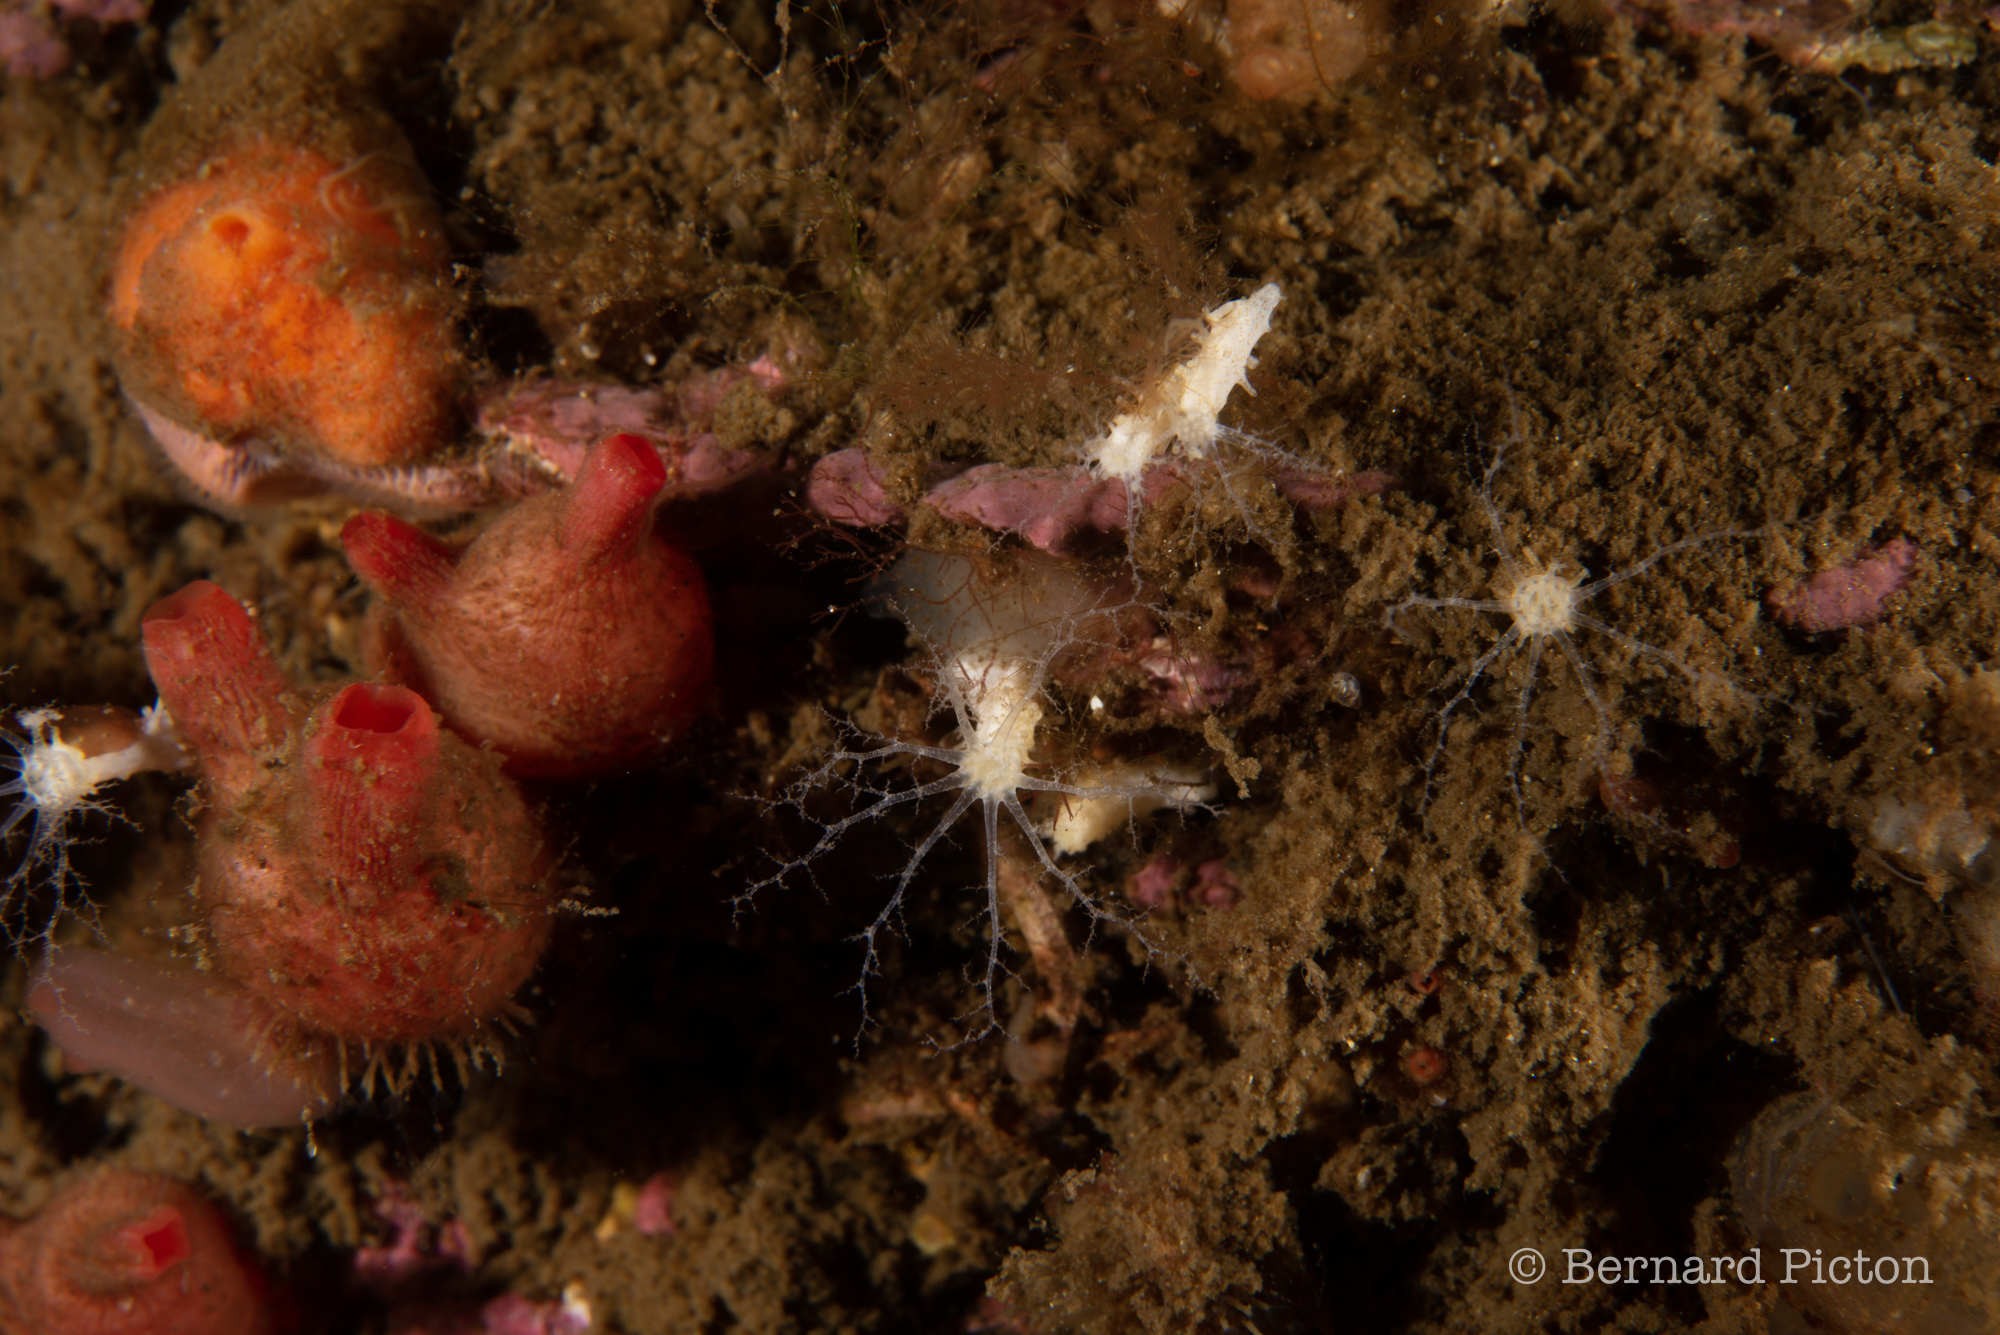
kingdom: Animalia
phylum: Chordata
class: Ascidiacea
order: Stolidobranchia
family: Styelidae
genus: Dendrodoa
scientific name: Dendrodoa grossularia
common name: Baked bean ascidian
